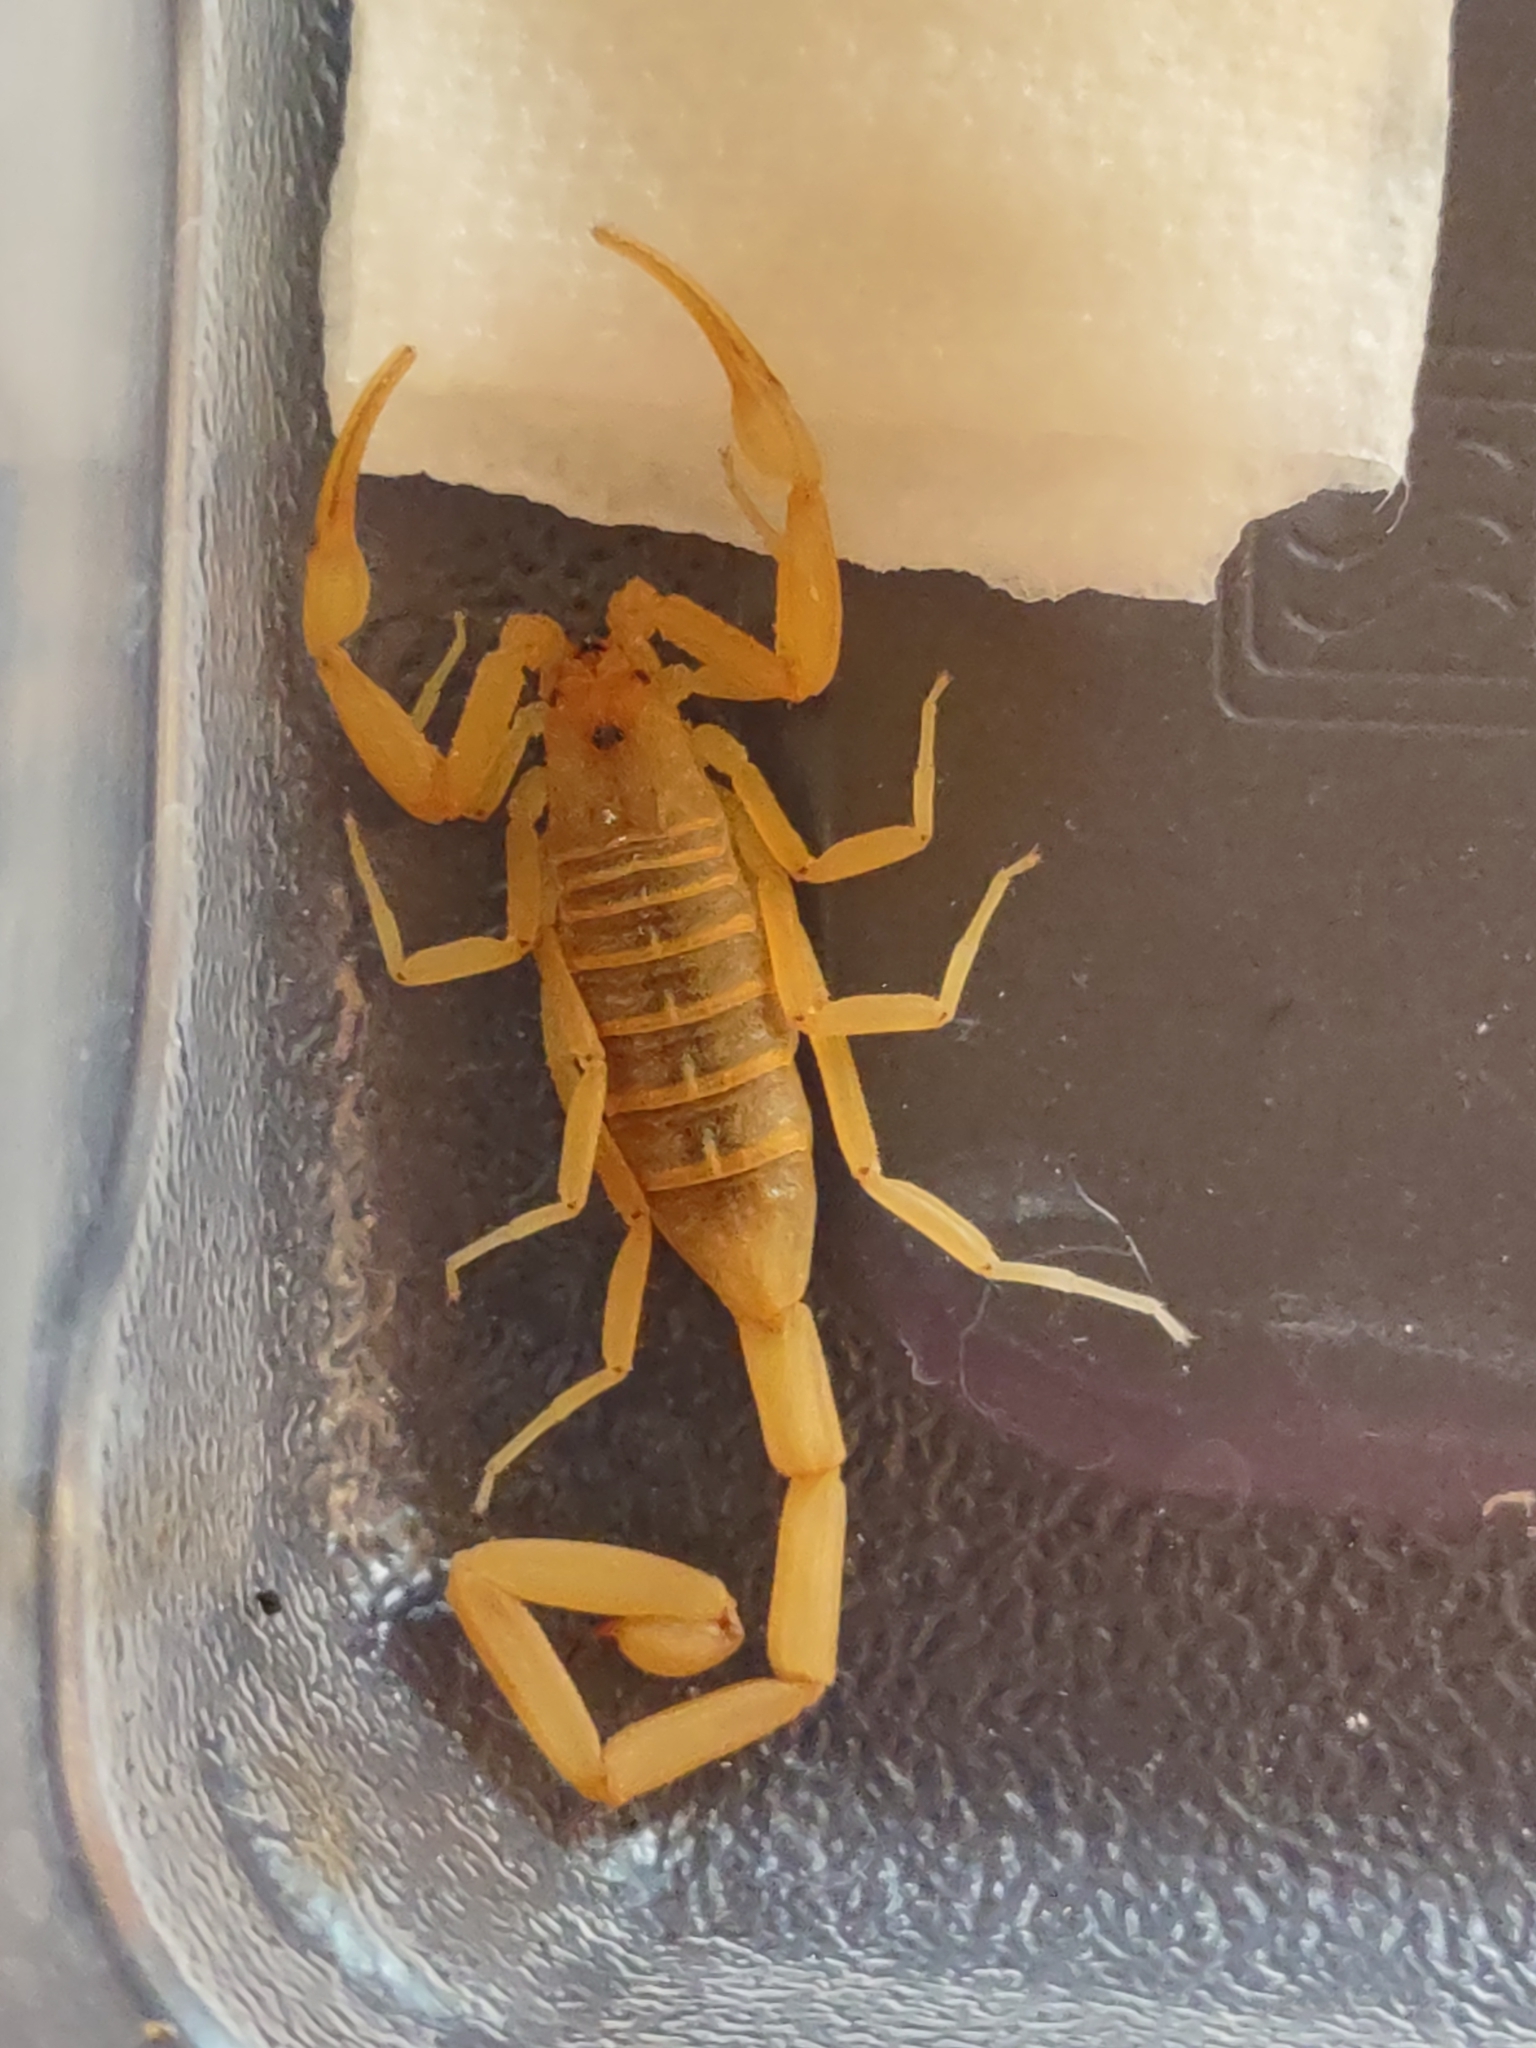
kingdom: Animalia
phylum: Arthropoda
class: Arachnida
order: Scorpiones
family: Buthidae
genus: Centruroides
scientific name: Centruroides sculpturatus
